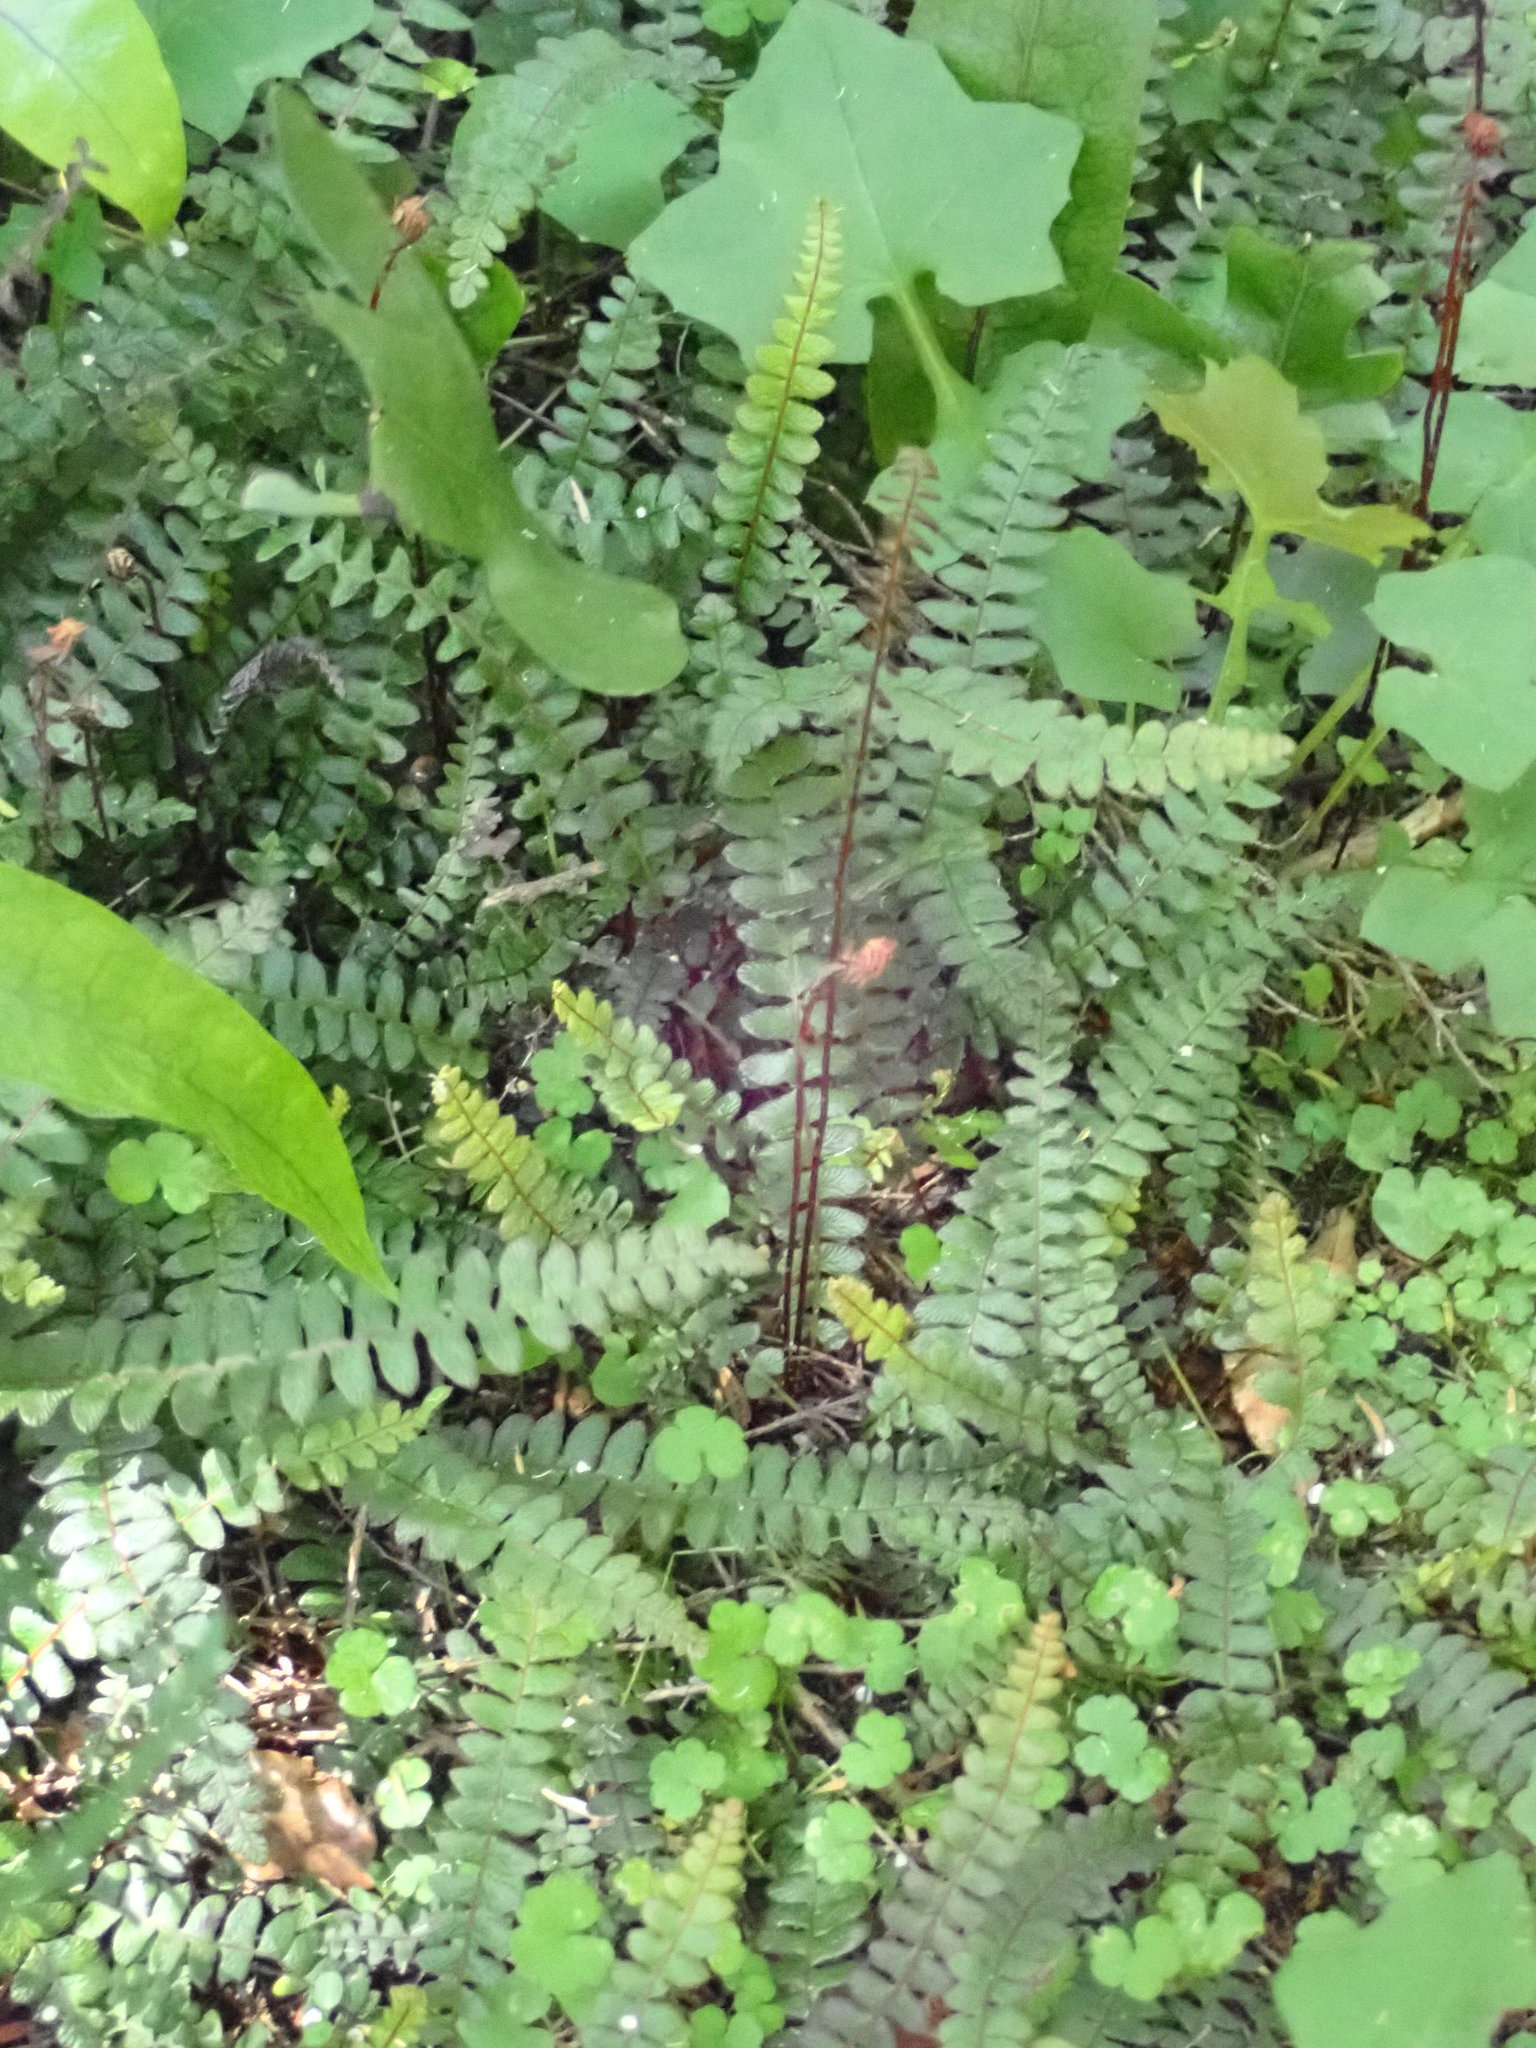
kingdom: Plantae
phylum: Tracheophyta
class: Polypodiopsida
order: Polypodiales
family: Blechnaceae
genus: Austroblechnum
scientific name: Austroblechnum penna-marina
